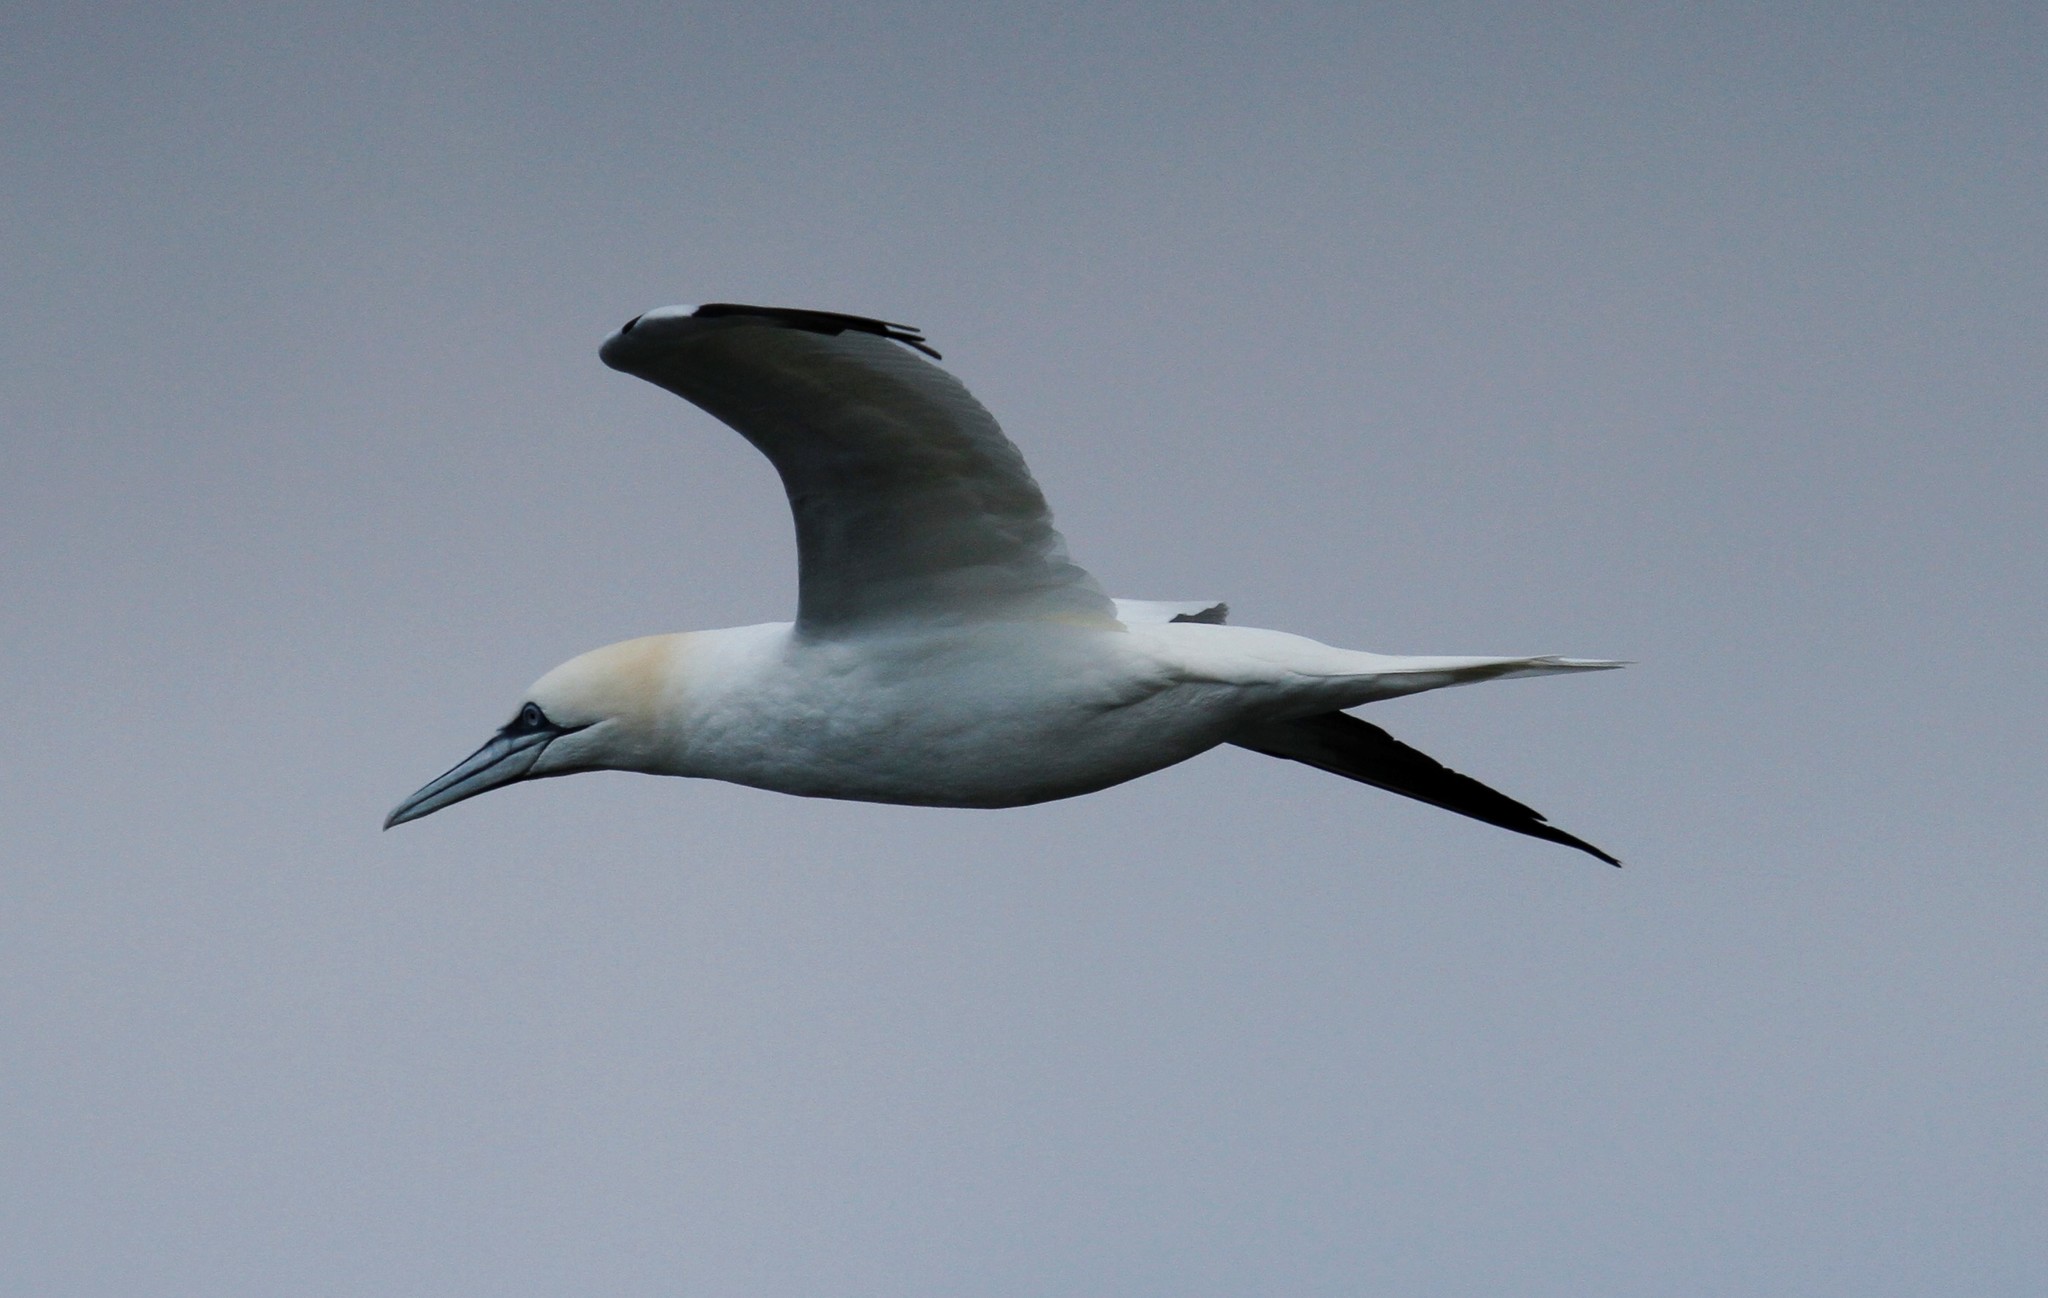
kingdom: Animalia
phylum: Chordata
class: Aves
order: Suliformes
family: Sulidae
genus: Morus
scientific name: Morus bassanus
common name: Northern gannet
